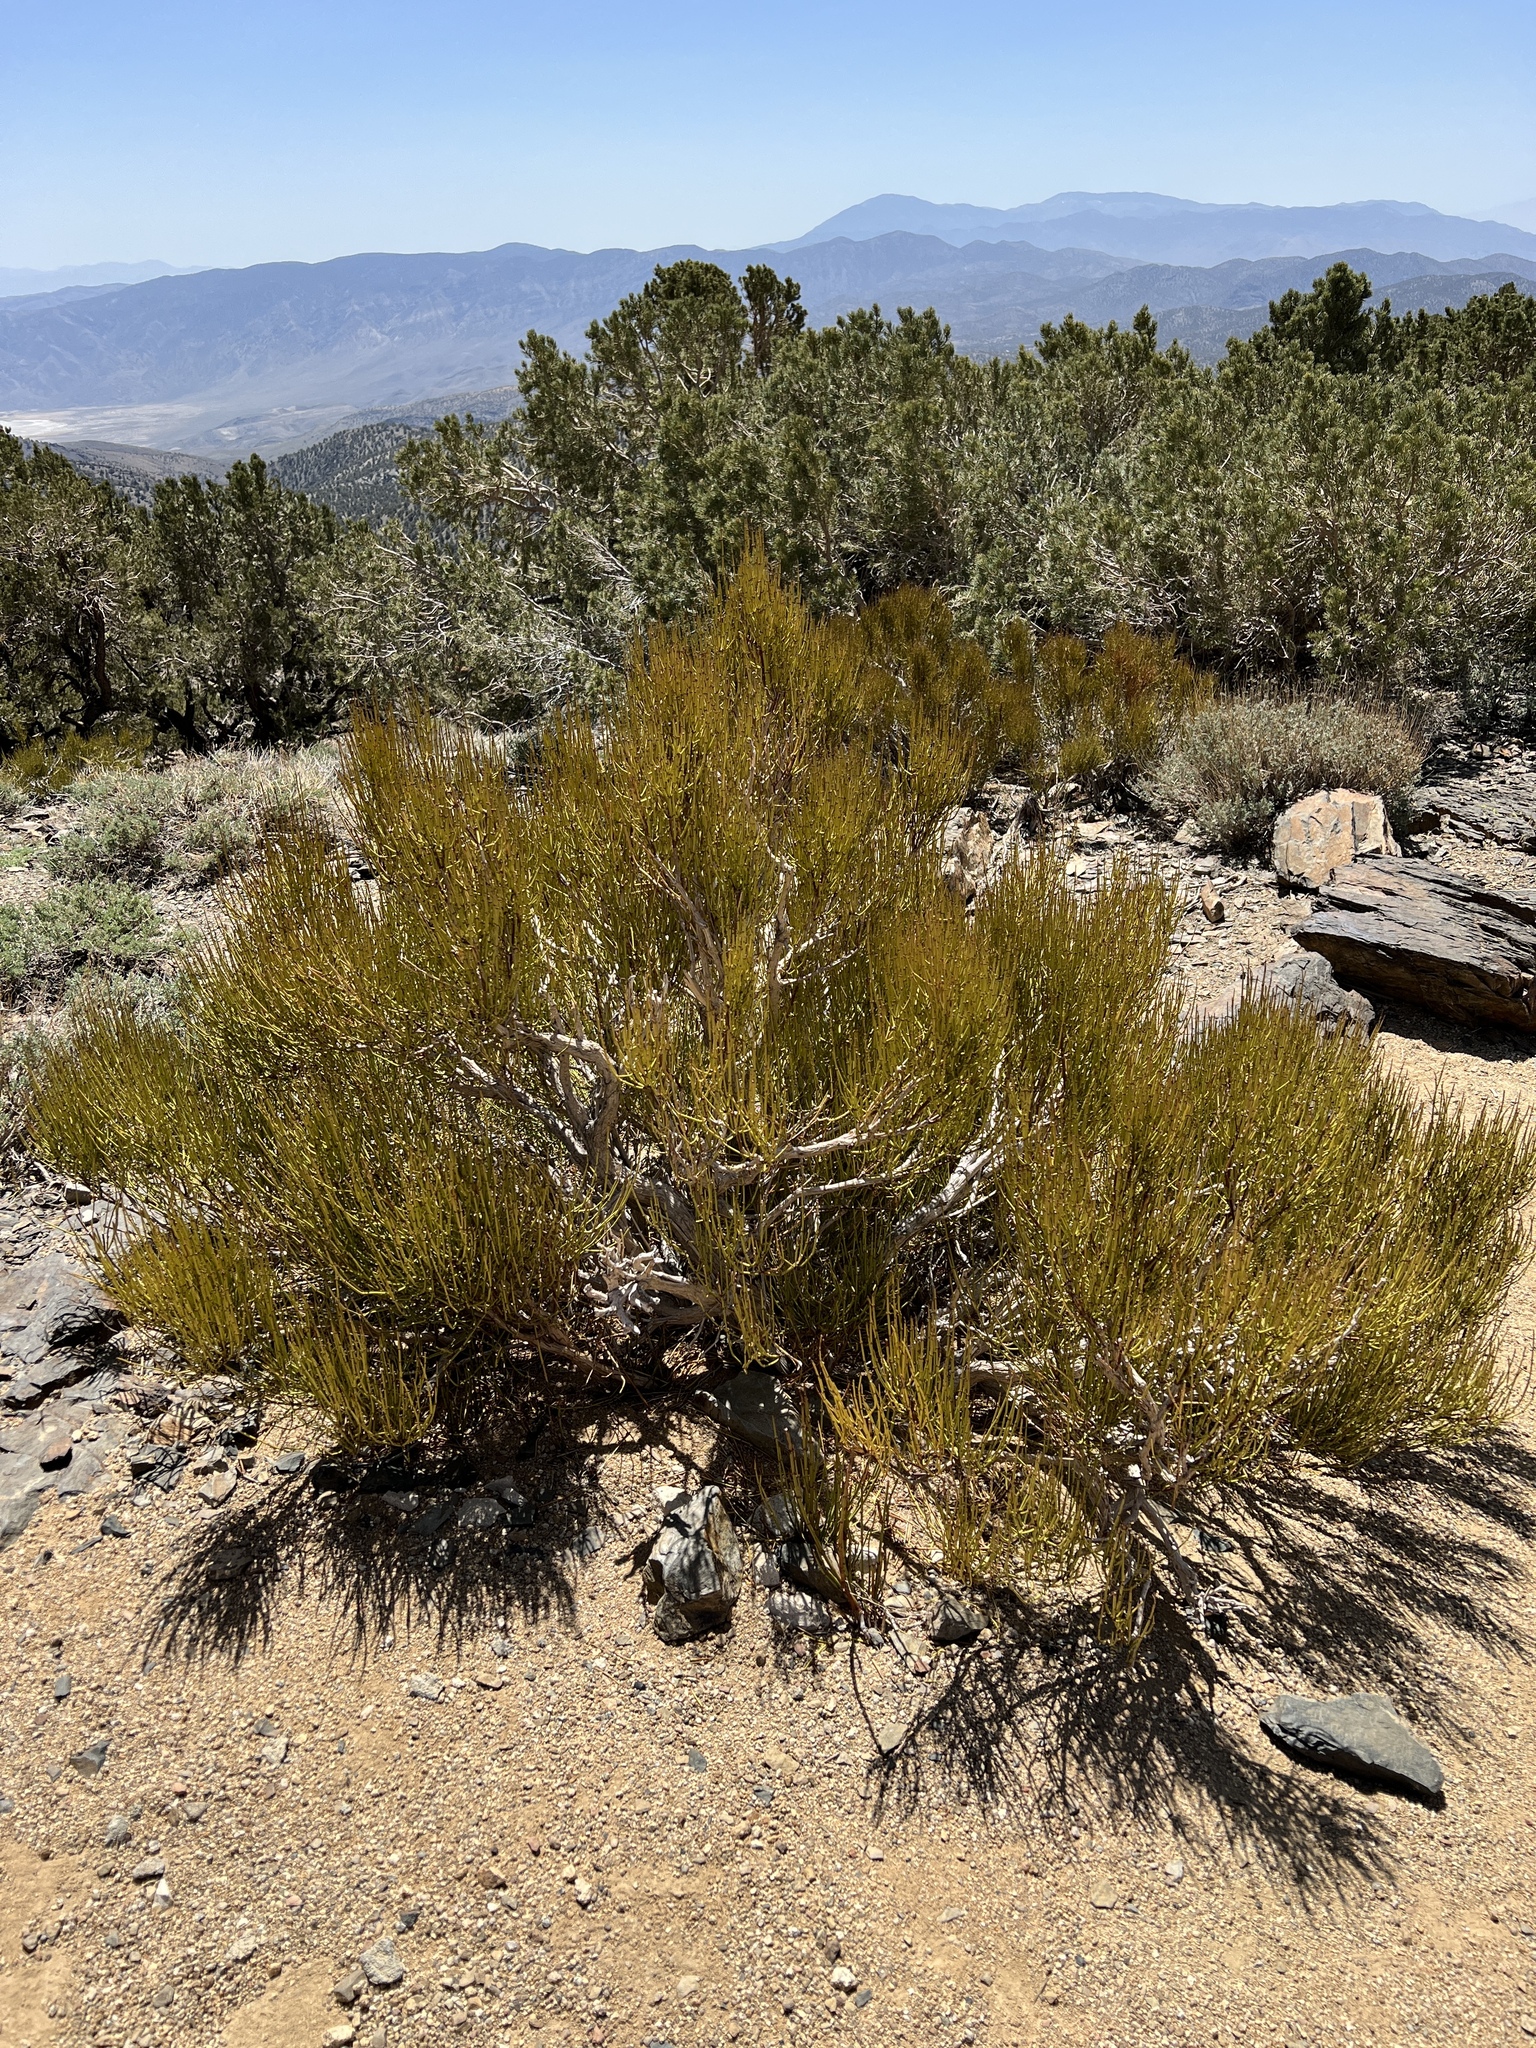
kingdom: Plantae
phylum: Tracheophyta
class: Gnetopsida
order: Ephedrales
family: Ephedraceae
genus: Ephedra
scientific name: Ephedra viridis
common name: Green ephedra
